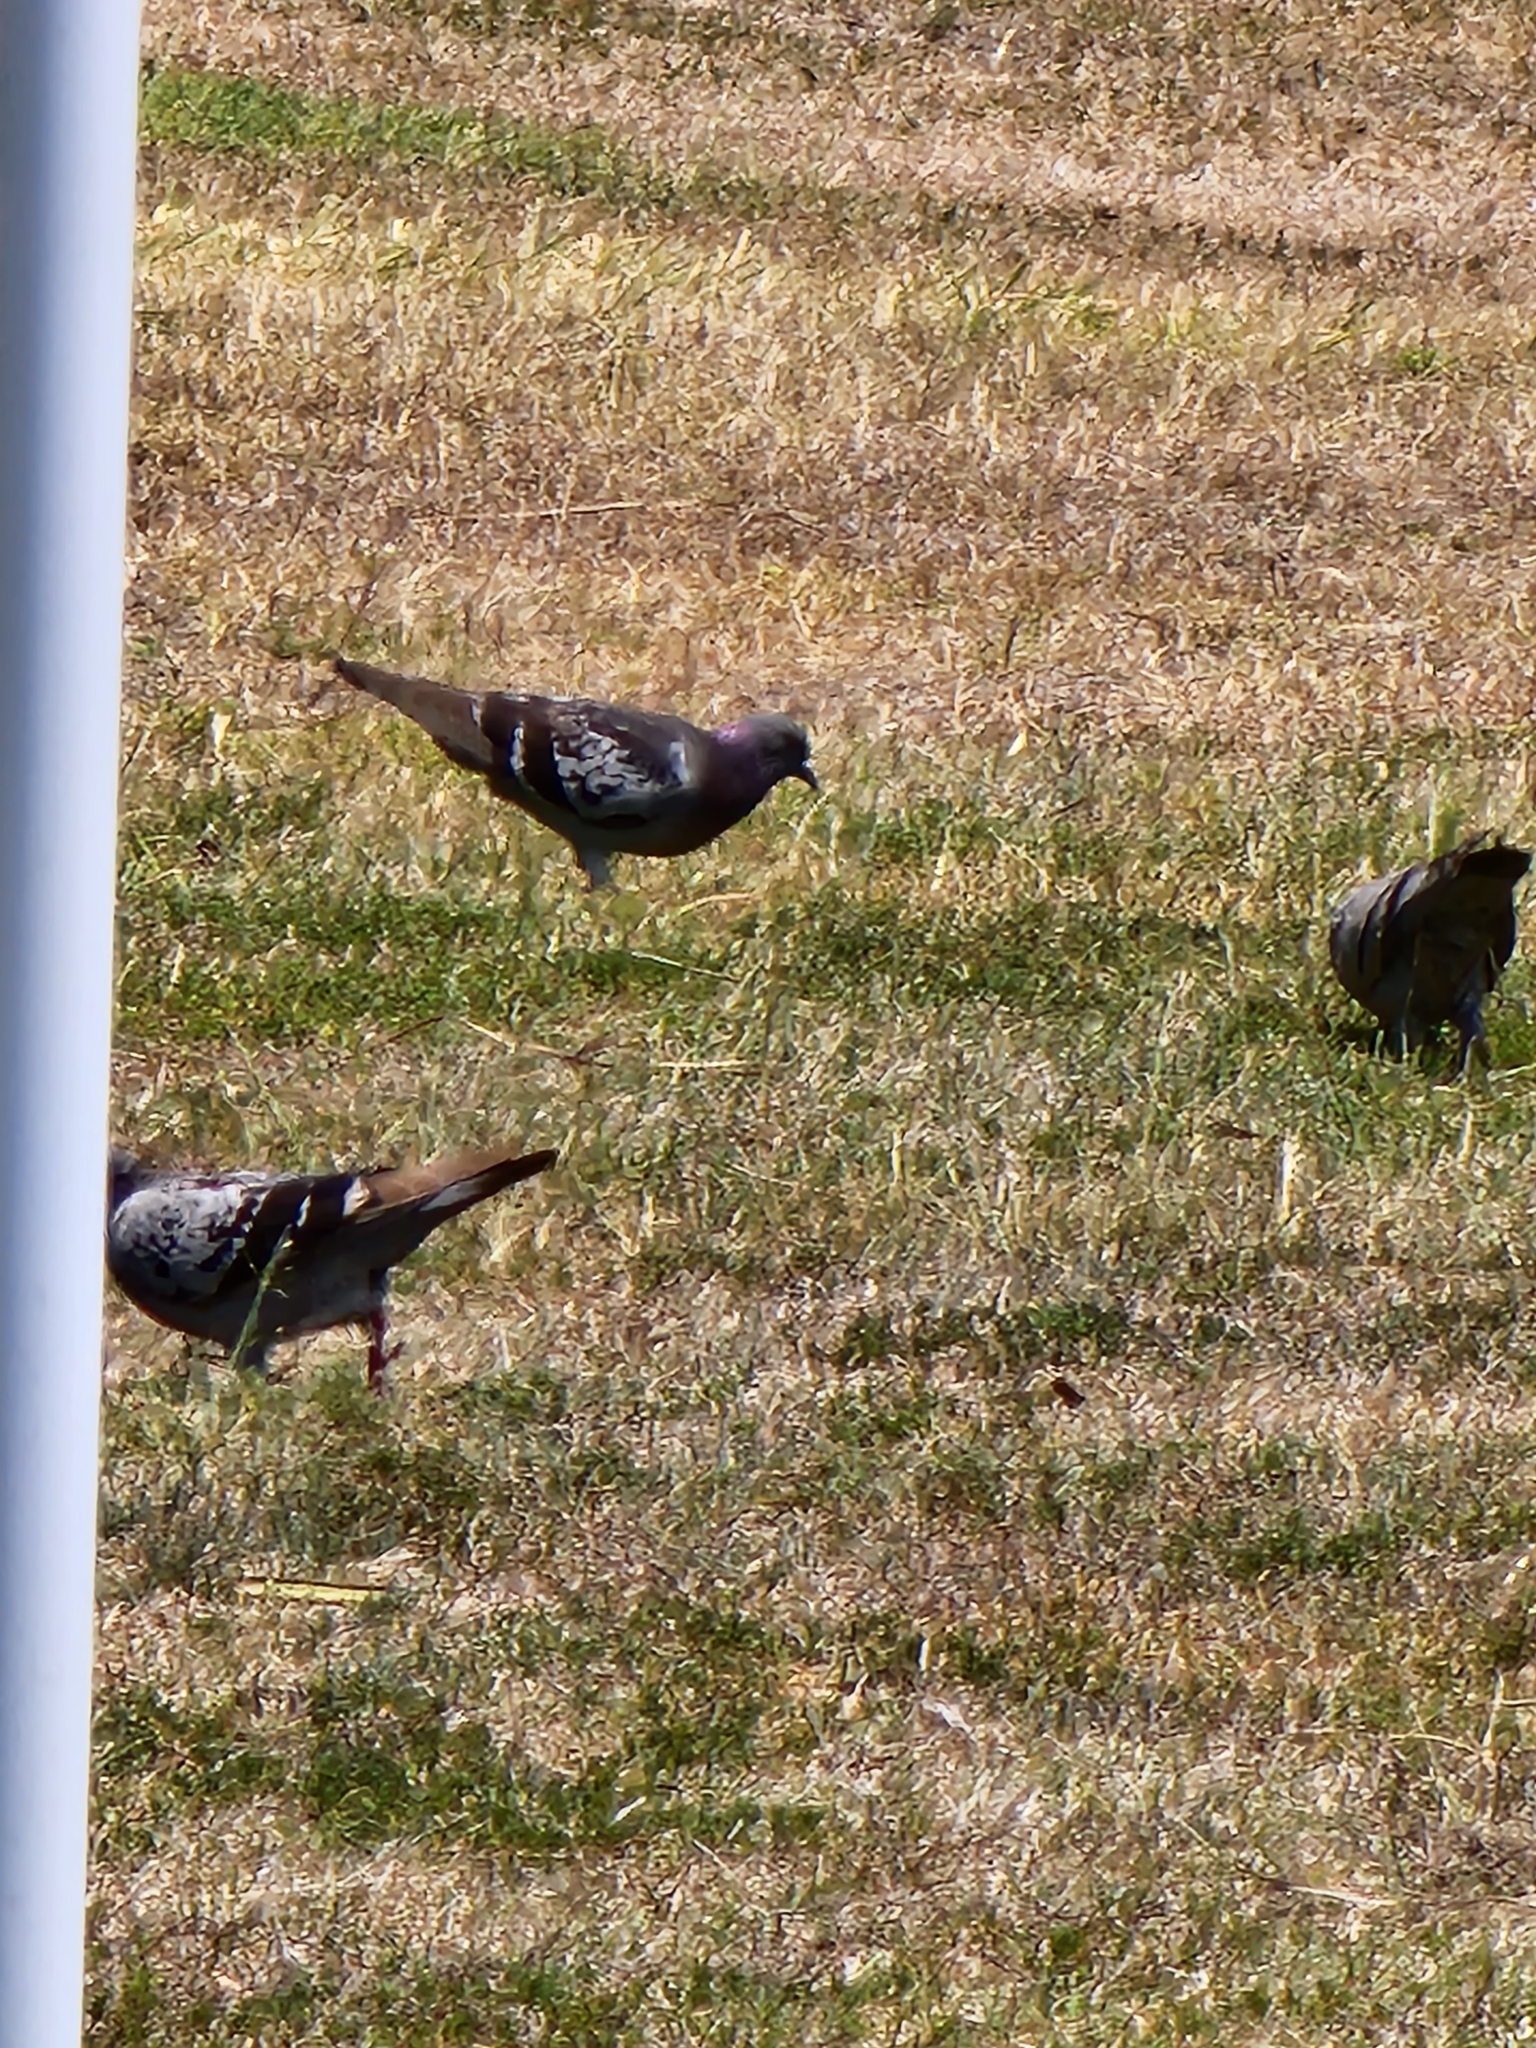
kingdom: Animalia
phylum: Chordata
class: Aves
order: Columbiformes
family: Columbidae
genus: Columba
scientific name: Columba livia
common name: Rock pigeon
